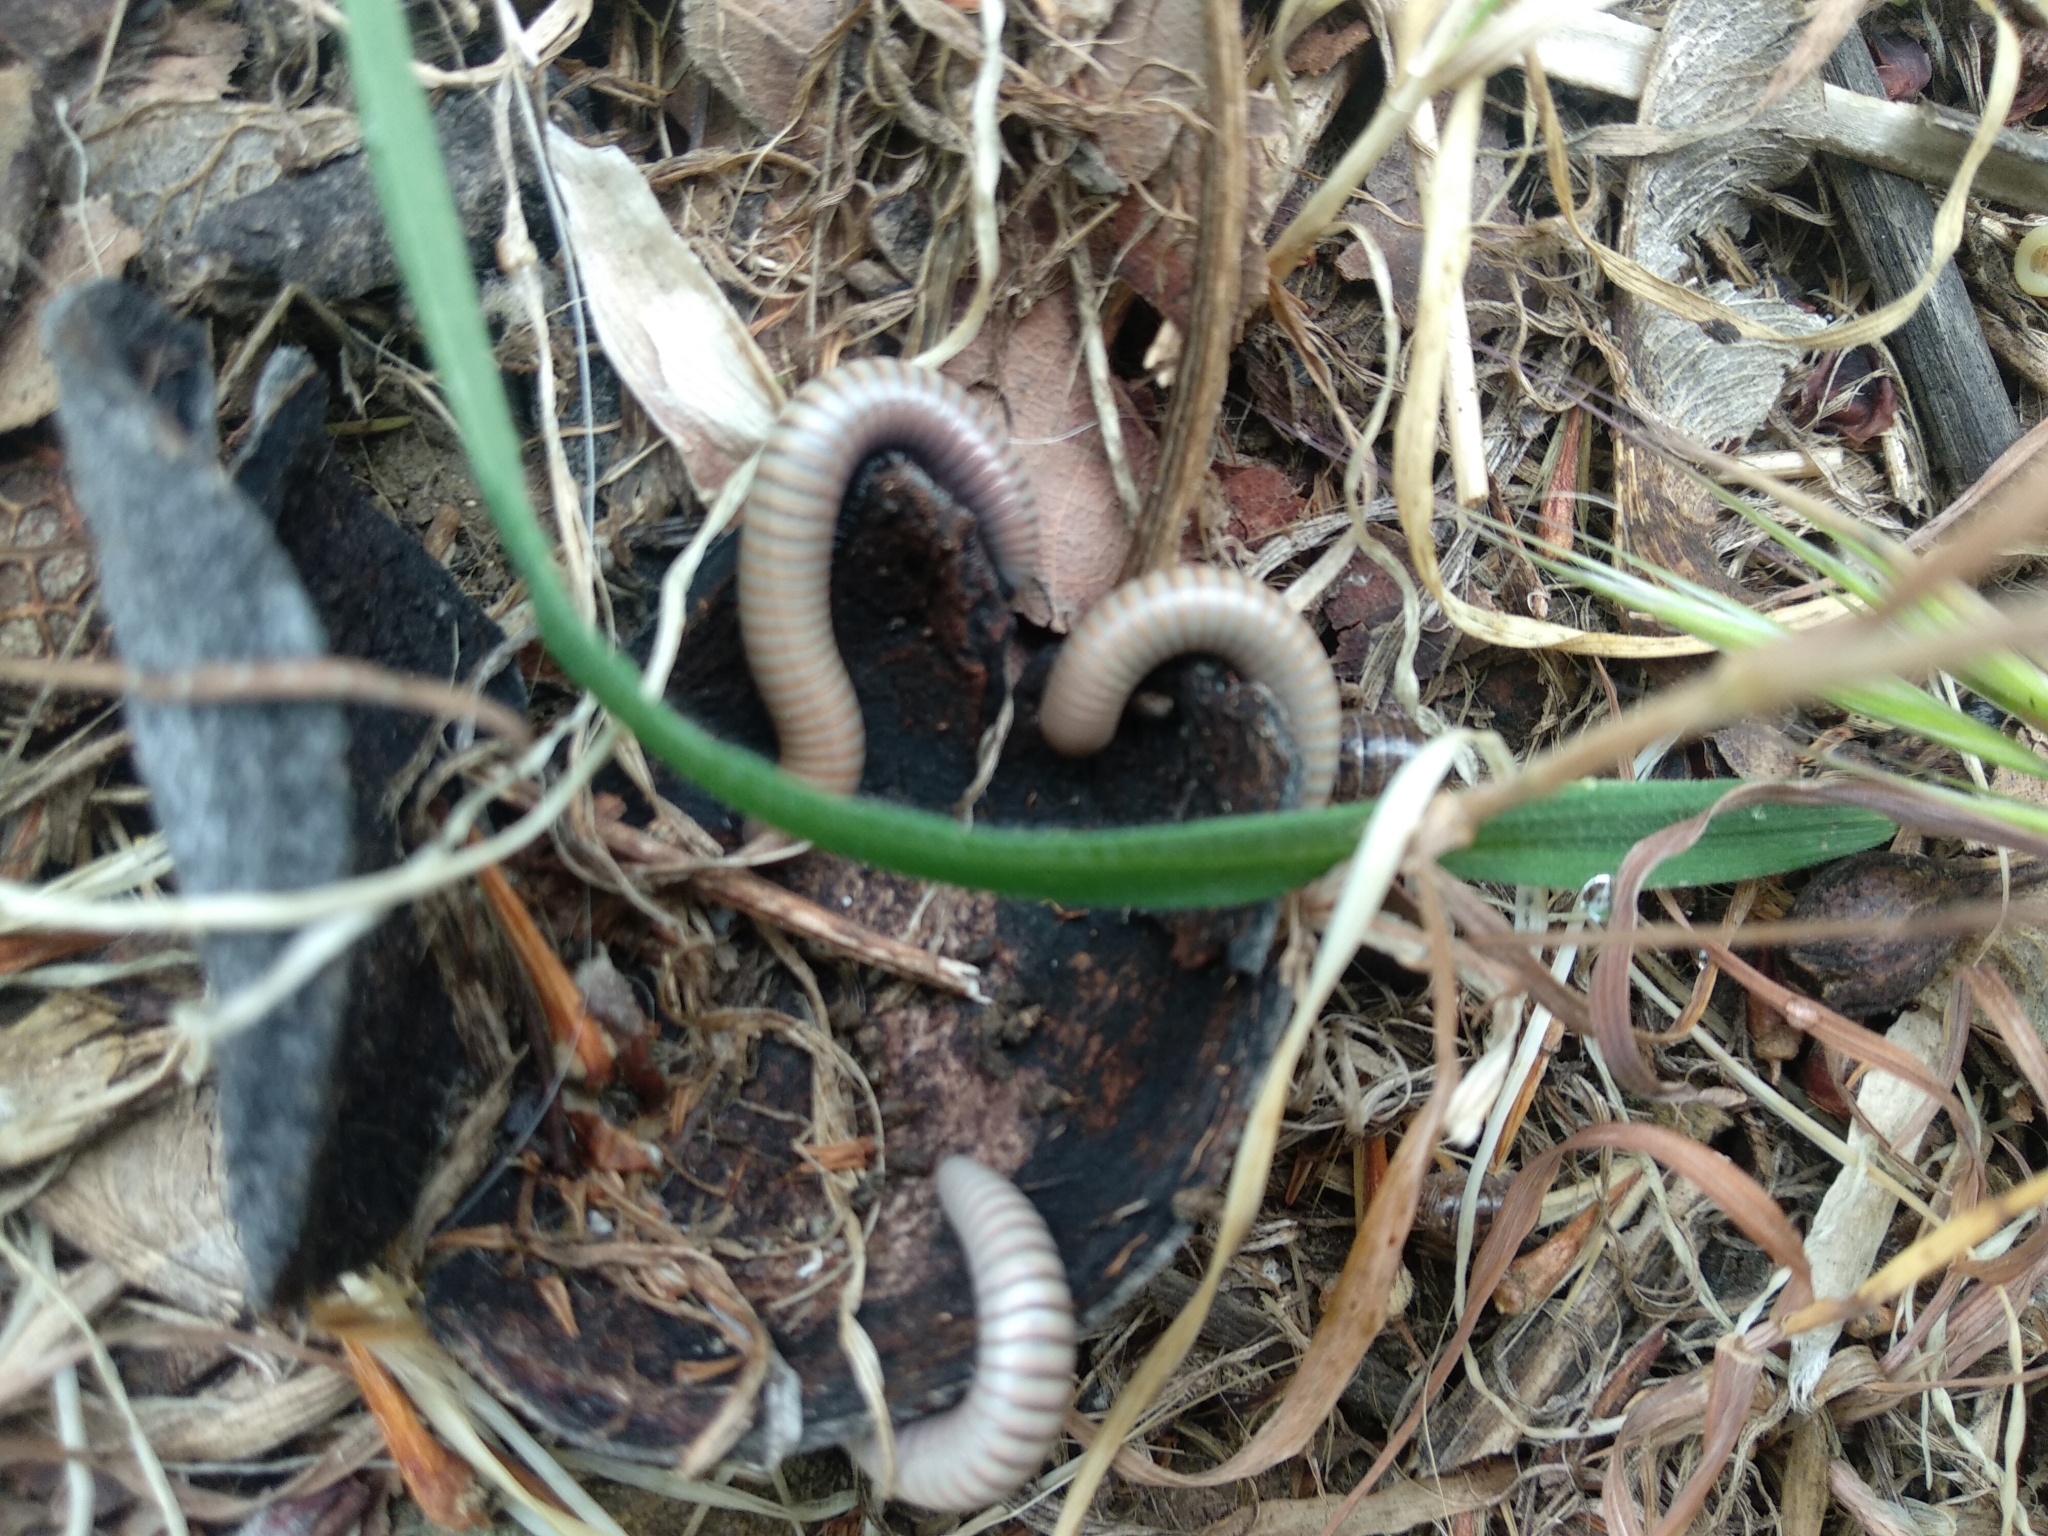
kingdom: Animalia
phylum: Arthropoda
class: Diplopoda
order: Julida
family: Julidae
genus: Ommatoiulus
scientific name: Ommatoiulus rutilans
